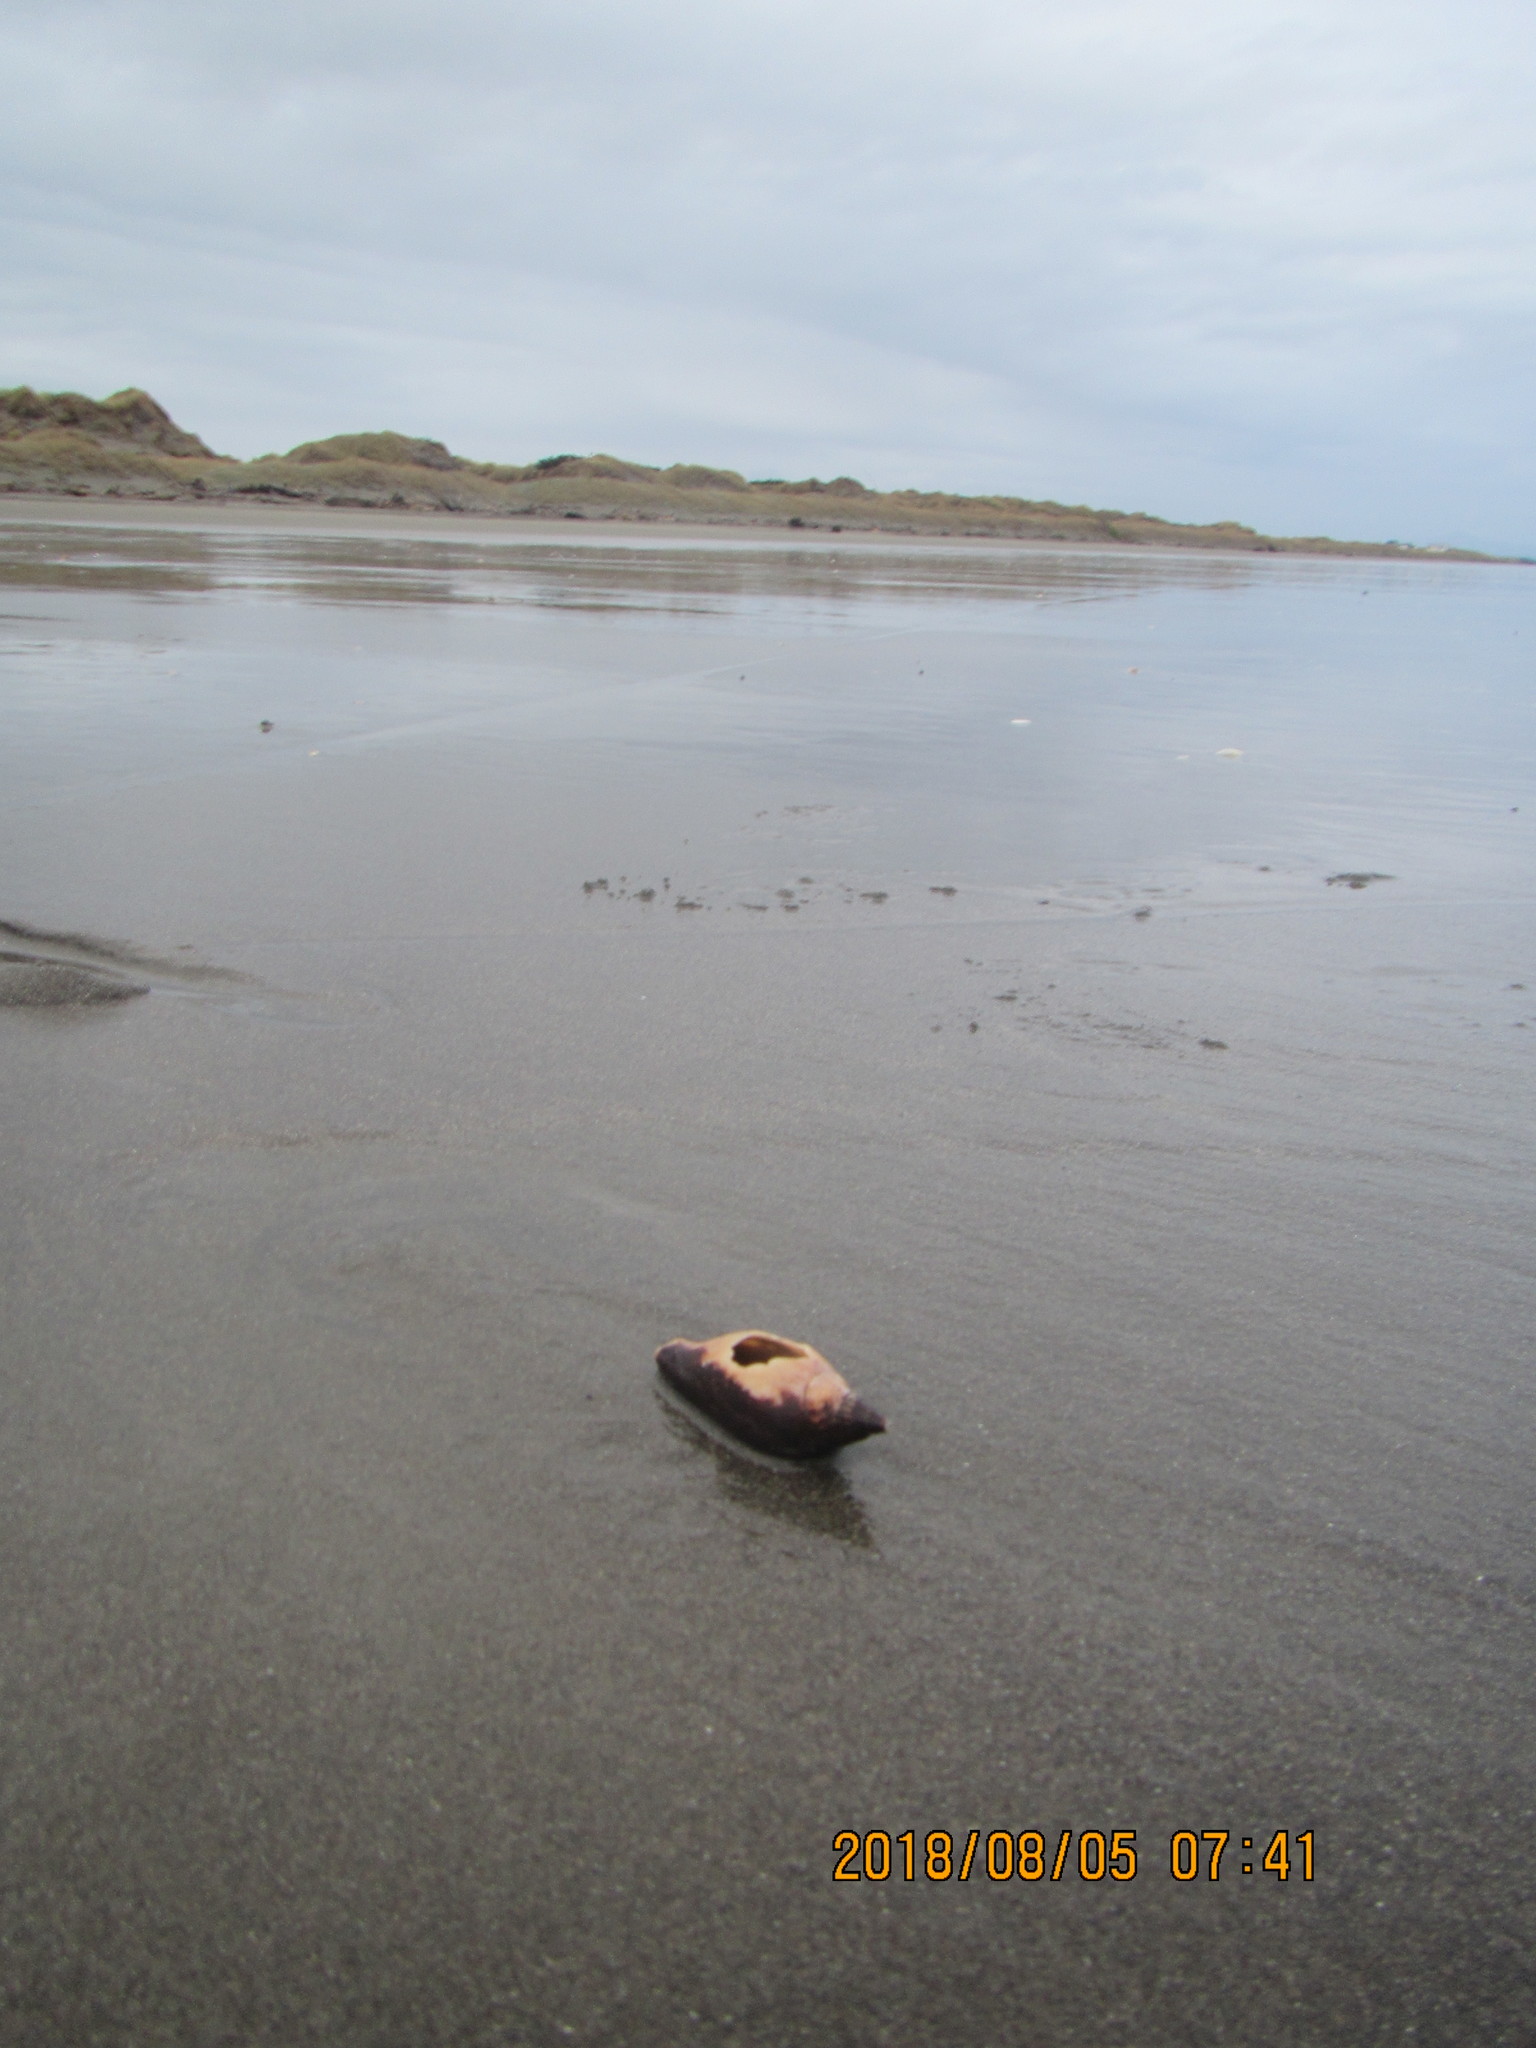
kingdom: Animalia
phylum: Mollusca
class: Gastropoda
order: Neogastropoda
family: Volutidae
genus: Alcithoe
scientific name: Alcithoe arabica
